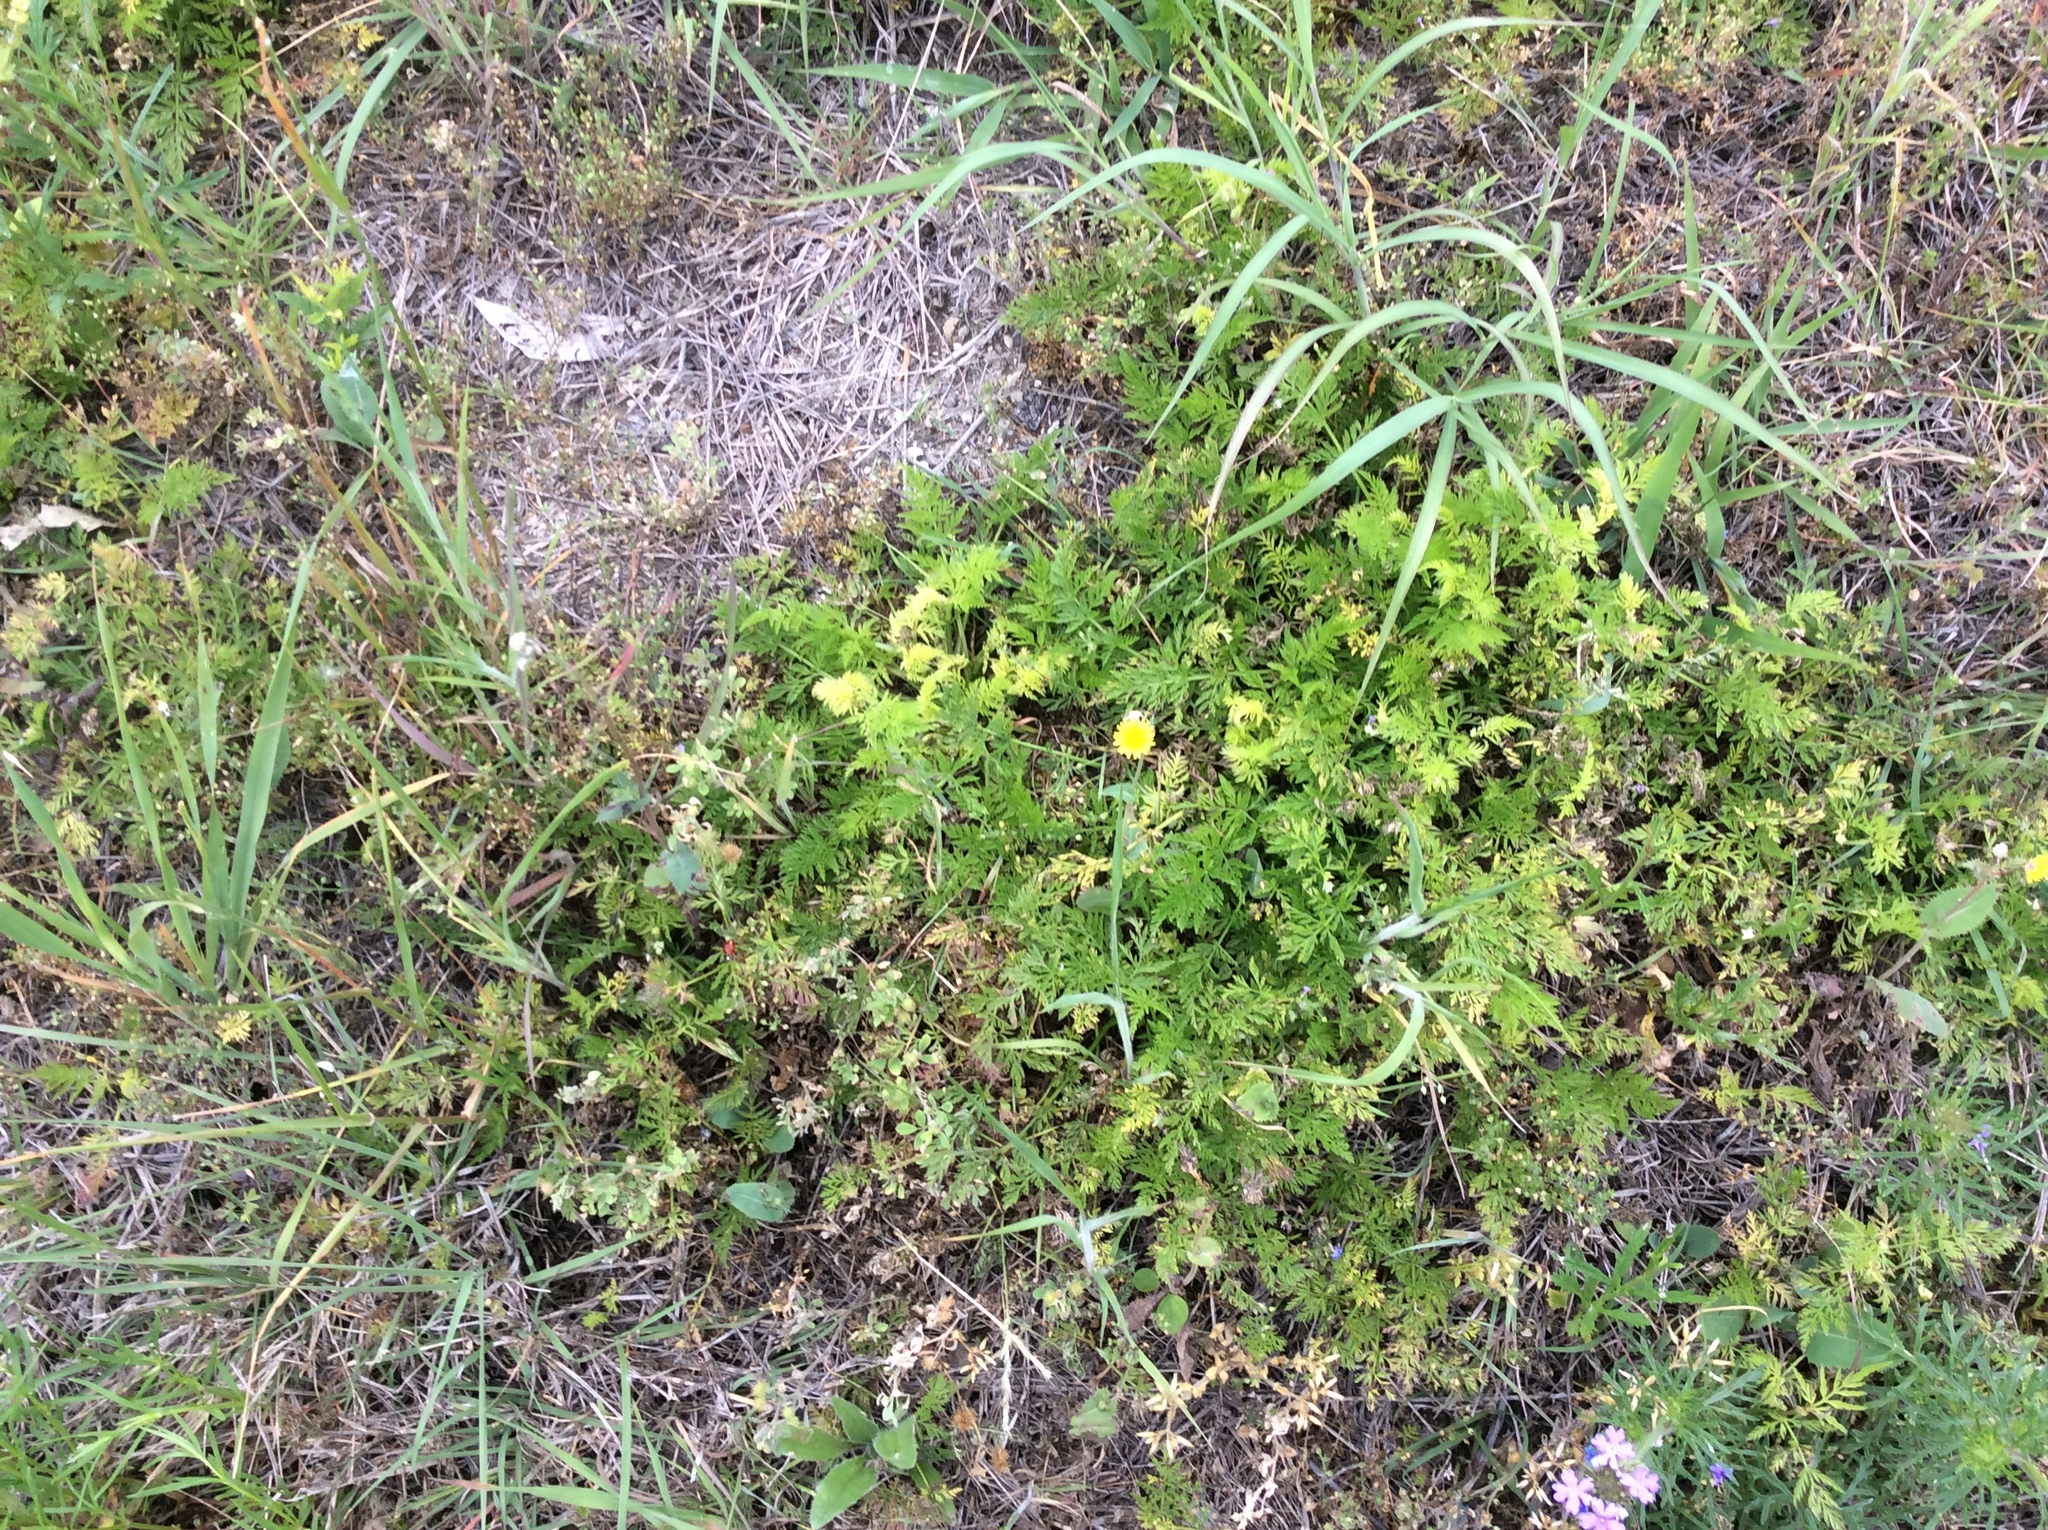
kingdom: Plantae
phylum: Tracheophyta
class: Magnoliopsida
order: Apiales
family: Apiaceae
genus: Torilis
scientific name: Torilis nodosa
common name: Knotted hedge-parsley
